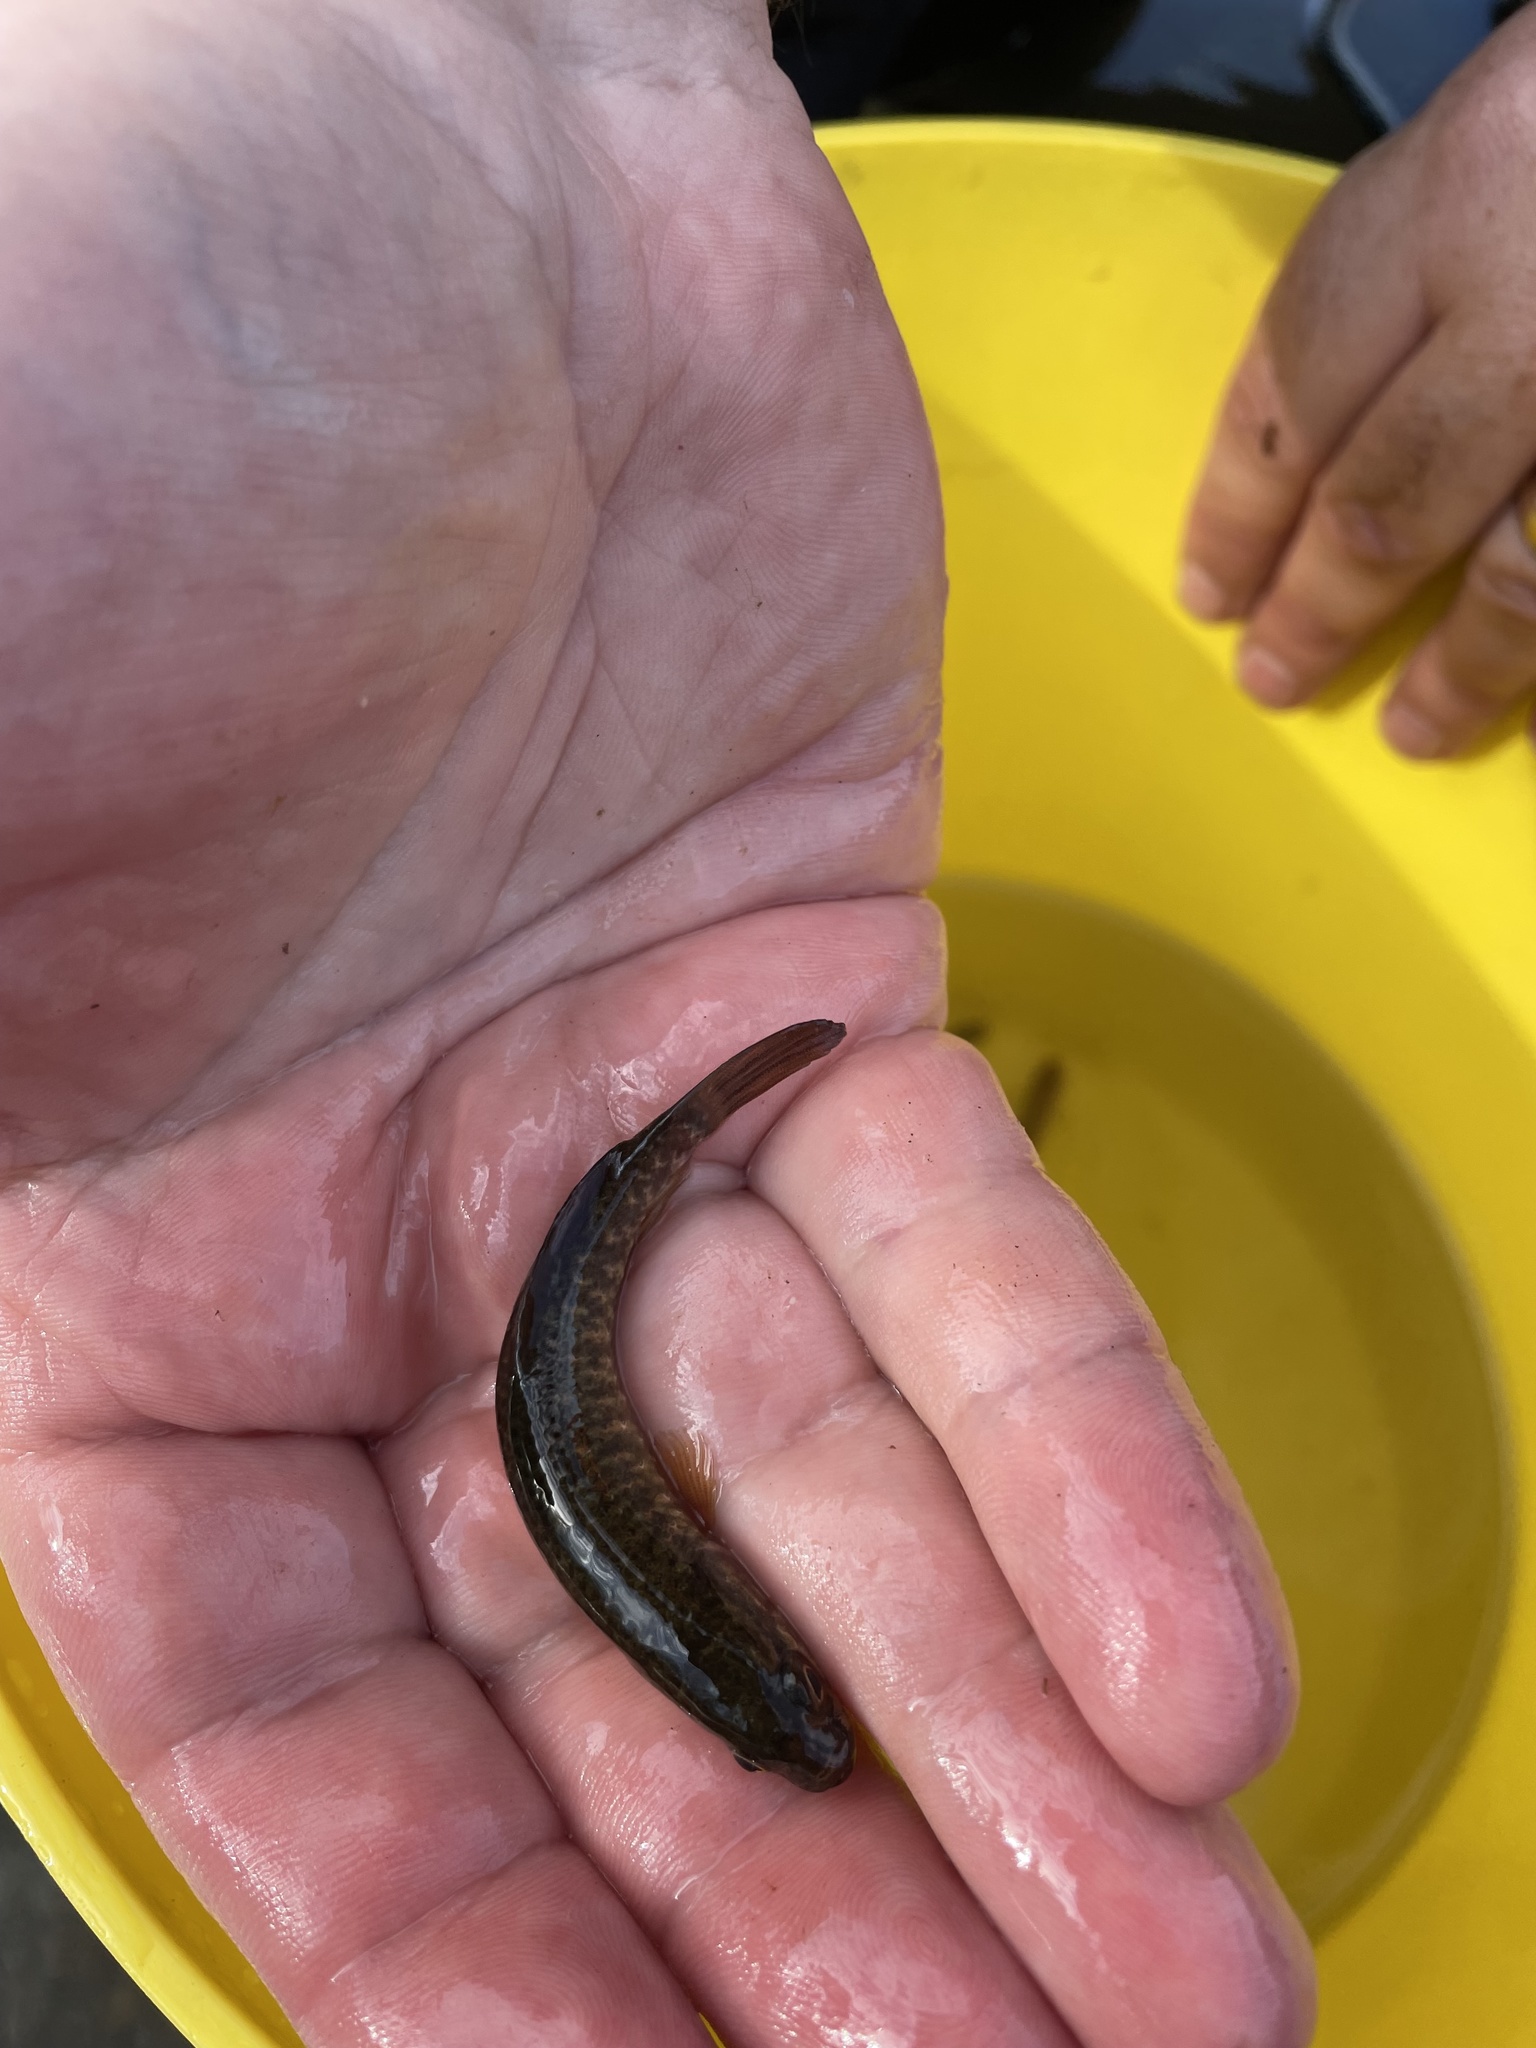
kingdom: Animalia
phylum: Chordata
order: Esociformes
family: Umbridae
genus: Umbra
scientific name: Umbra limi
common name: Central mudminnow
